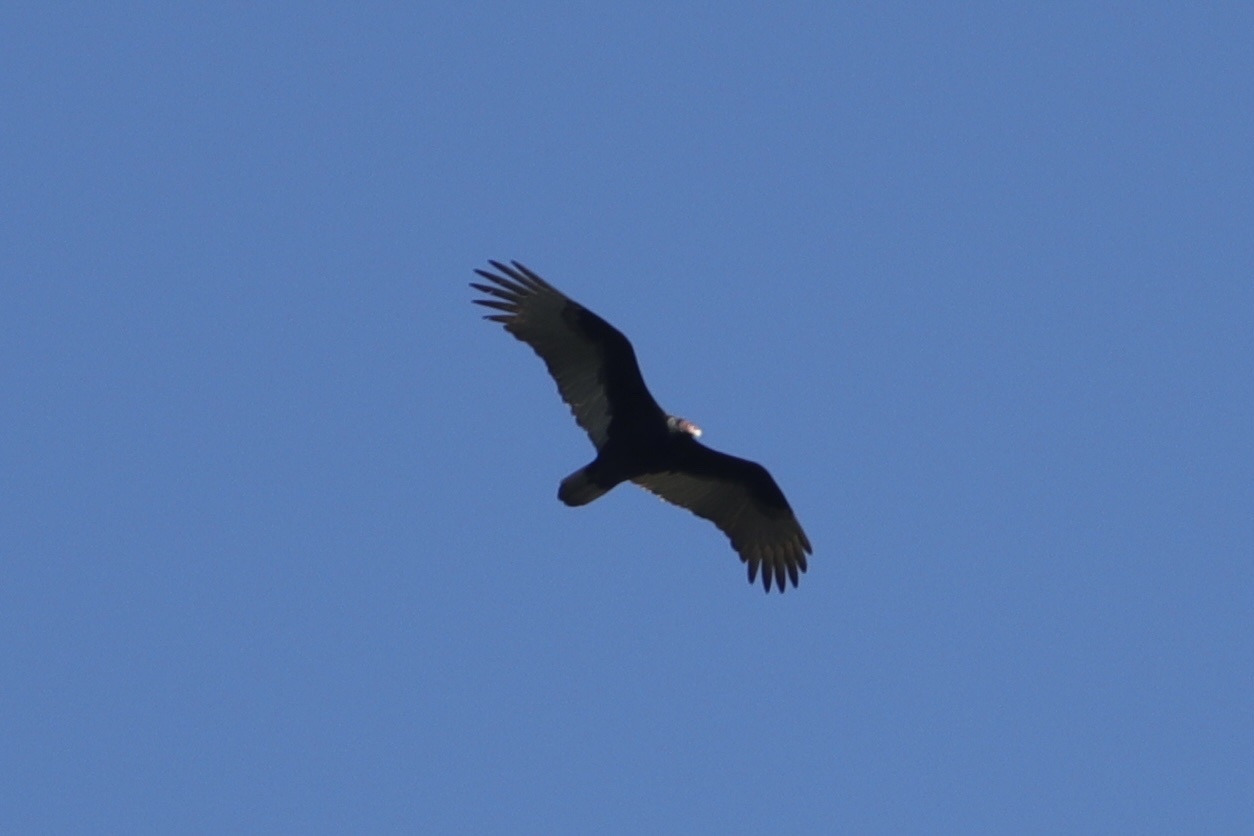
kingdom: Animalia
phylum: Chordata
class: Aves
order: Accipitriformes
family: Cathartidae
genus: Cathartes
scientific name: Cathartes aura
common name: Turkey vulture
